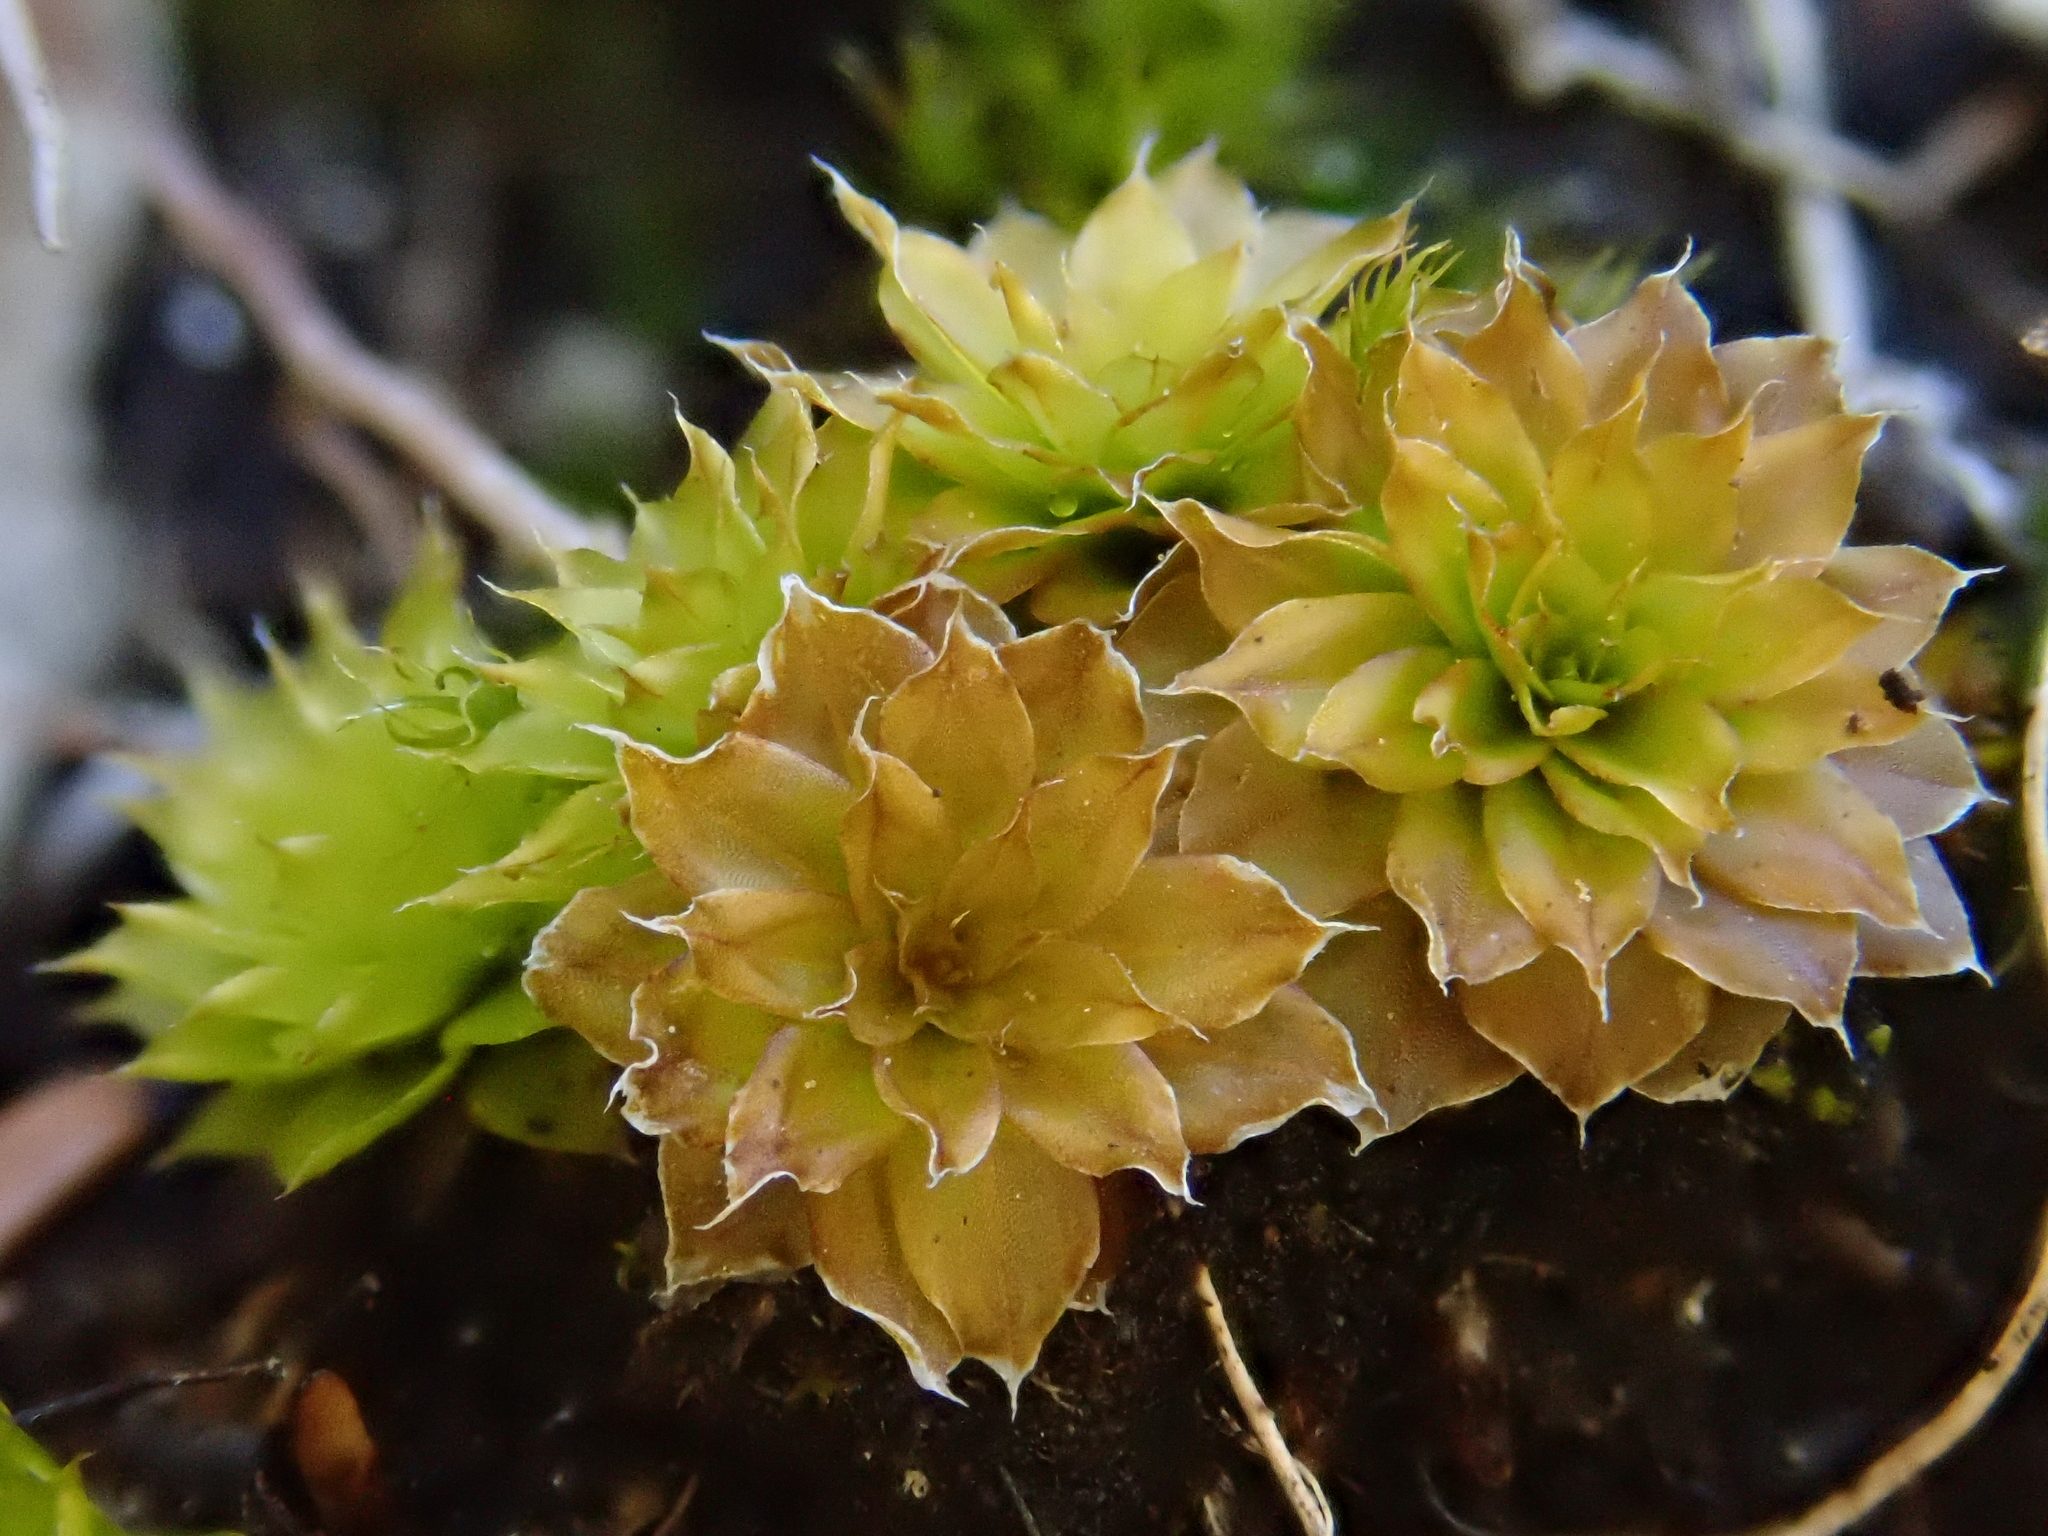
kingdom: Plantae
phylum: Bryophyta
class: Bryopsida
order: Bryales
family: Bryaceae
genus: Rhodobryum
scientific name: Rhodobryum ontariense
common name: Ontario rhodobryum moss
